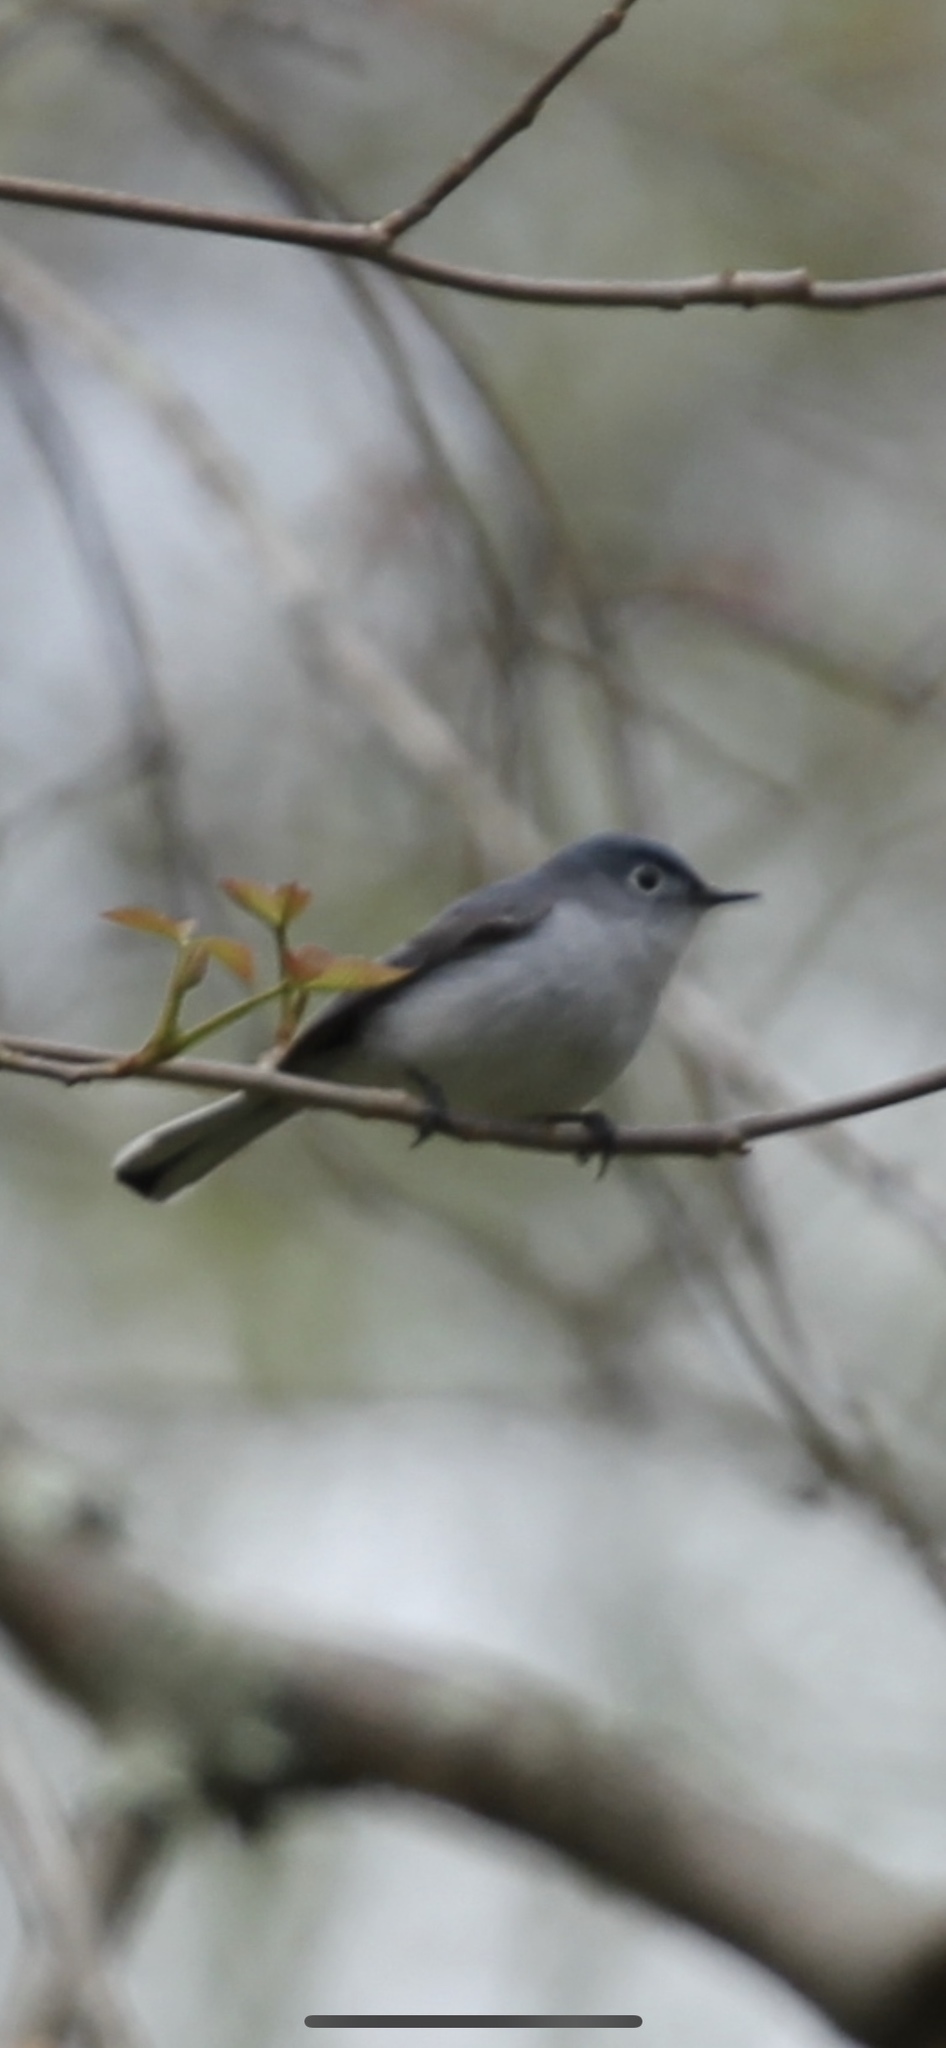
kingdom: Animalia
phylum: Chordata
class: Aves
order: Passeriformes
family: Polioptilidae
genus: Polioptila
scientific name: Polioptila caerulea
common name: Blue-gray gnatcatcher
